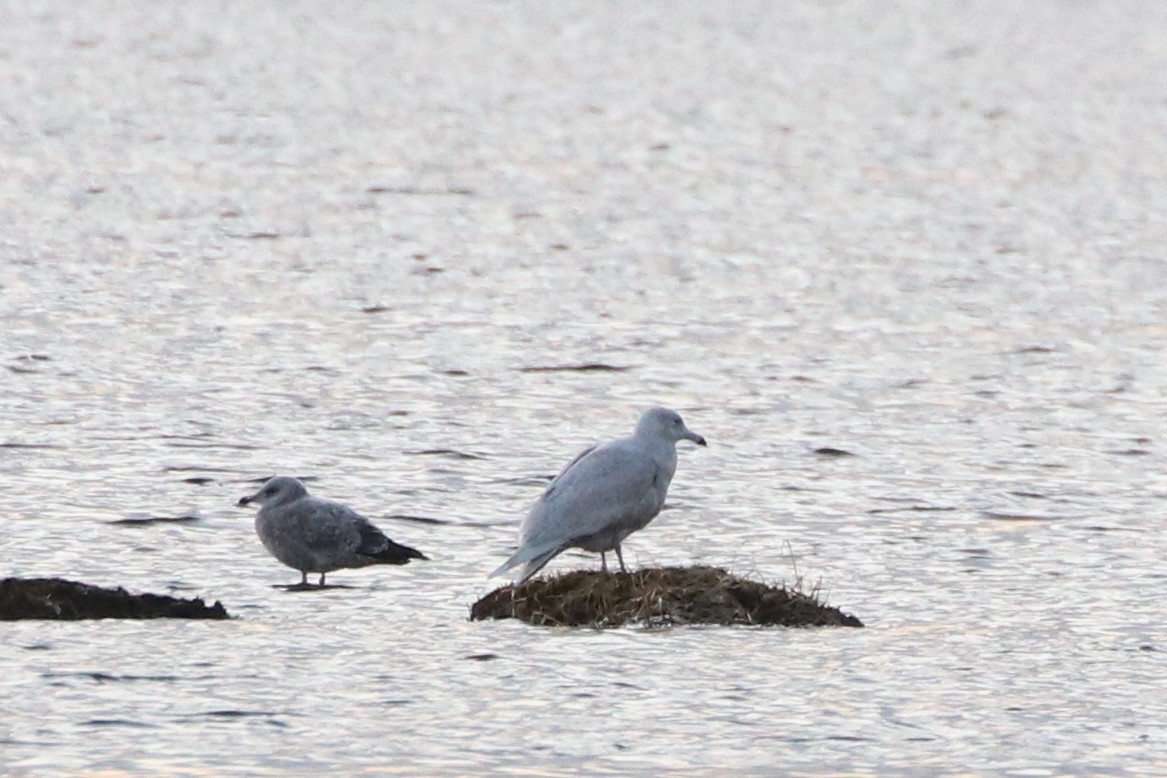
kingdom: Animalia
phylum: Chordata
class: Aves
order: Charadriiformes
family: Laridae
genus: Larus
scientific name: Larus hyperboreus
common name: Glaucous gull
